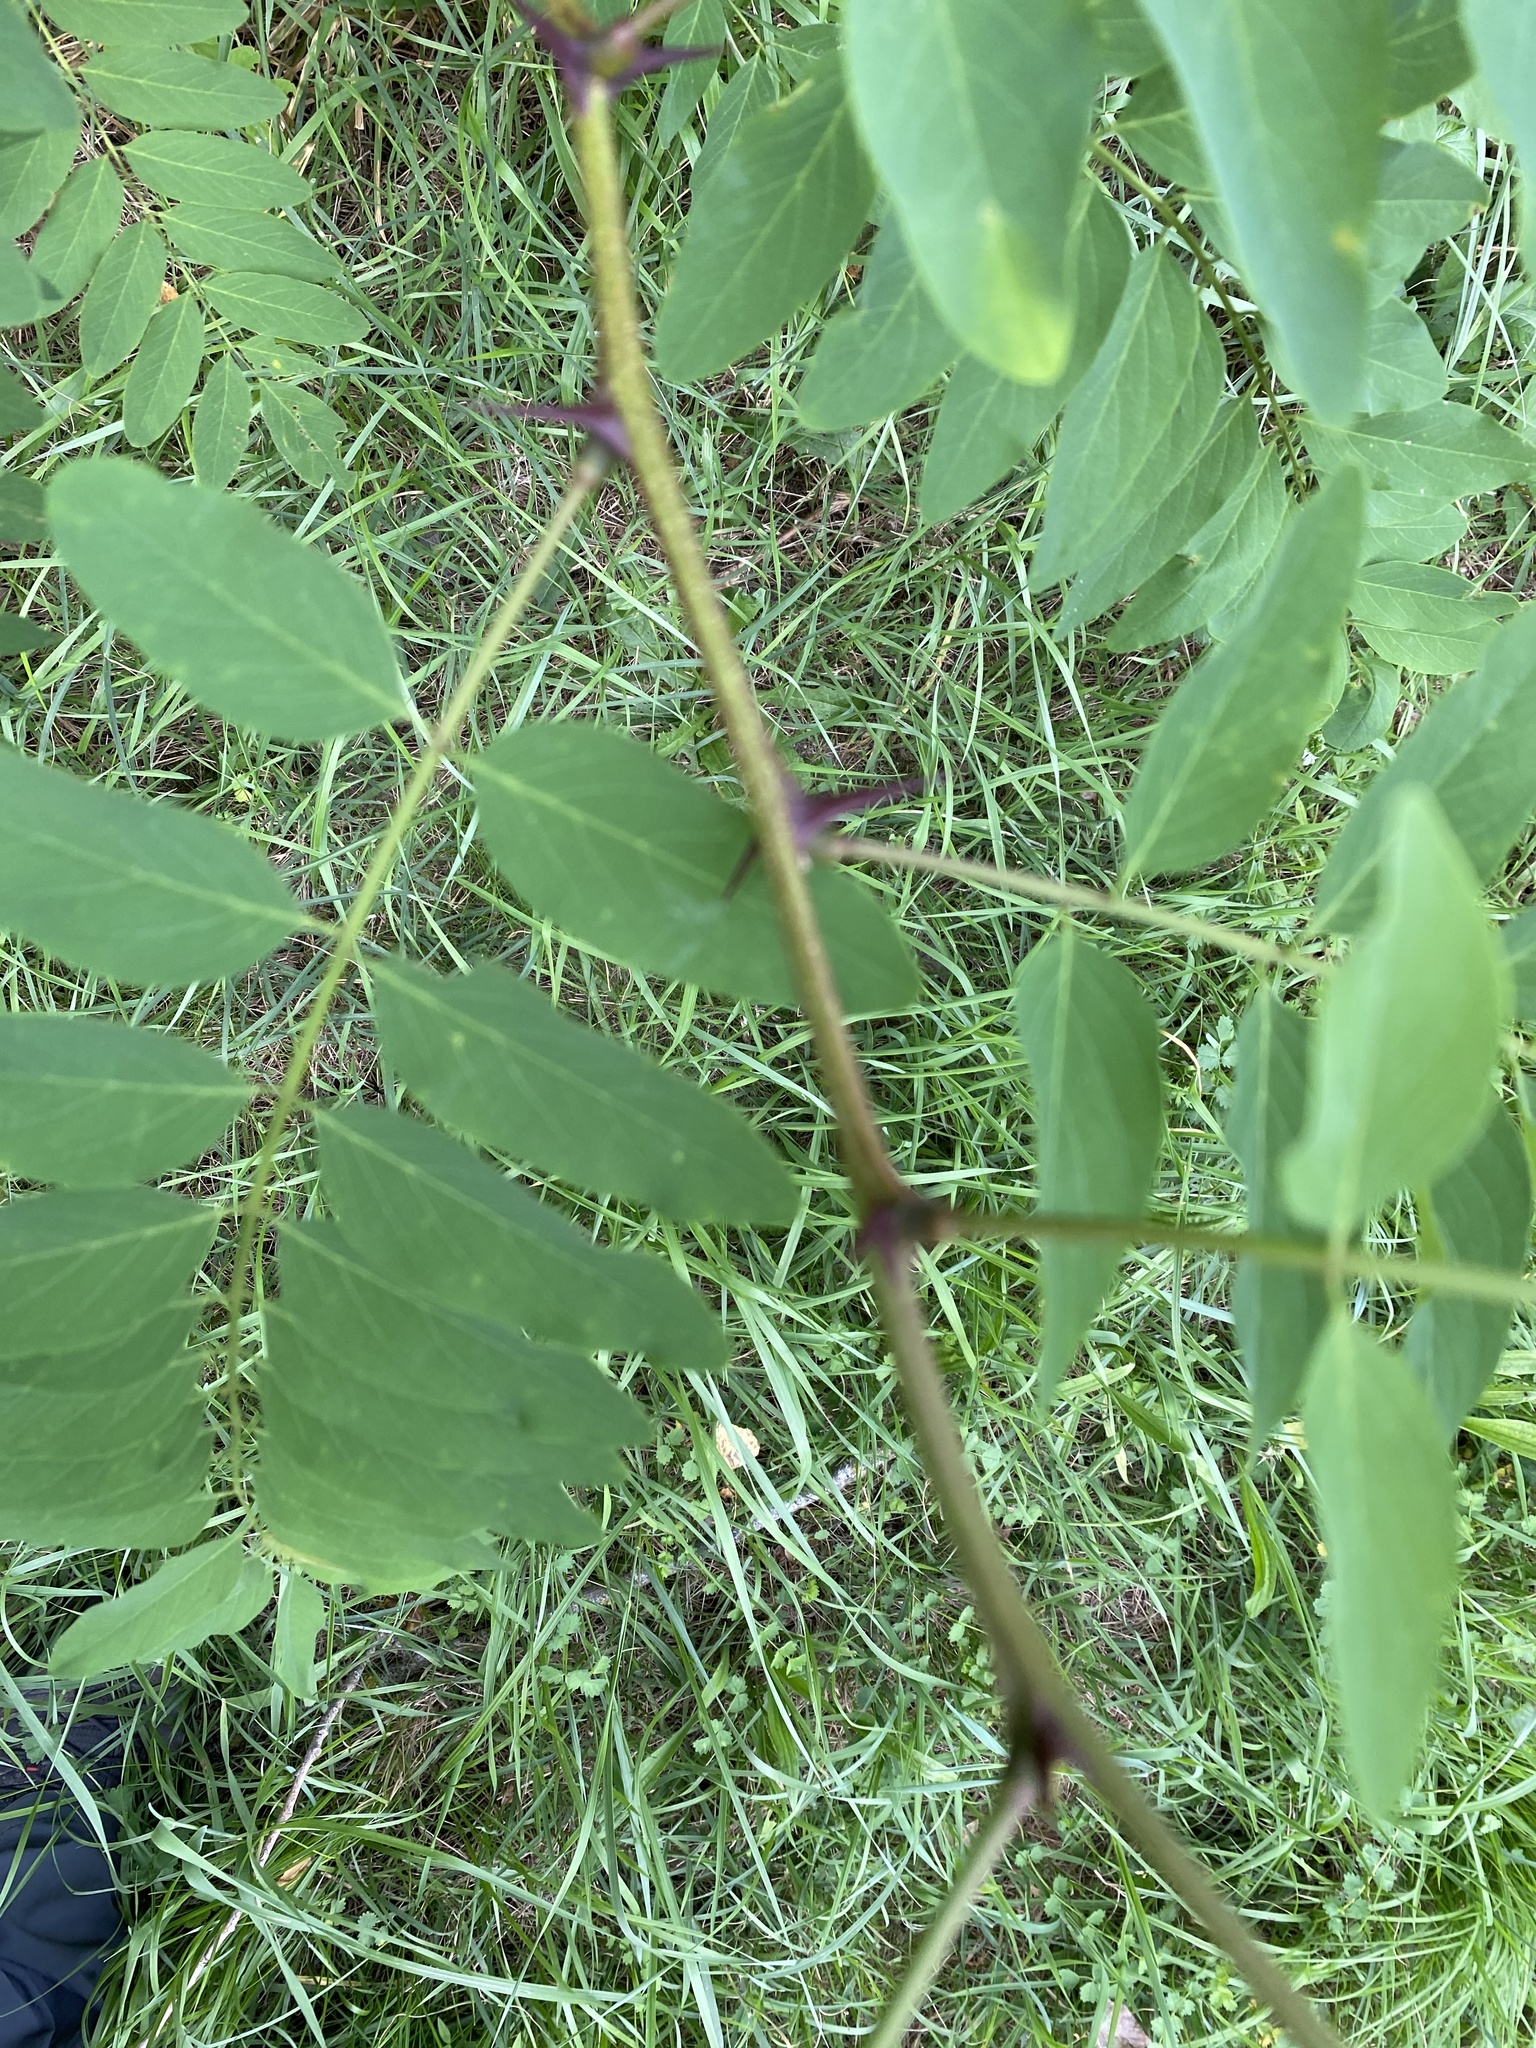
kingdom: Plantae
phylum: Tracheophyta
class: Magnoliopsida
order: Fabales
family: Fabaceae
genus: Robinia
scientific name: Robinia pseudoacacia
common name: Black locust
